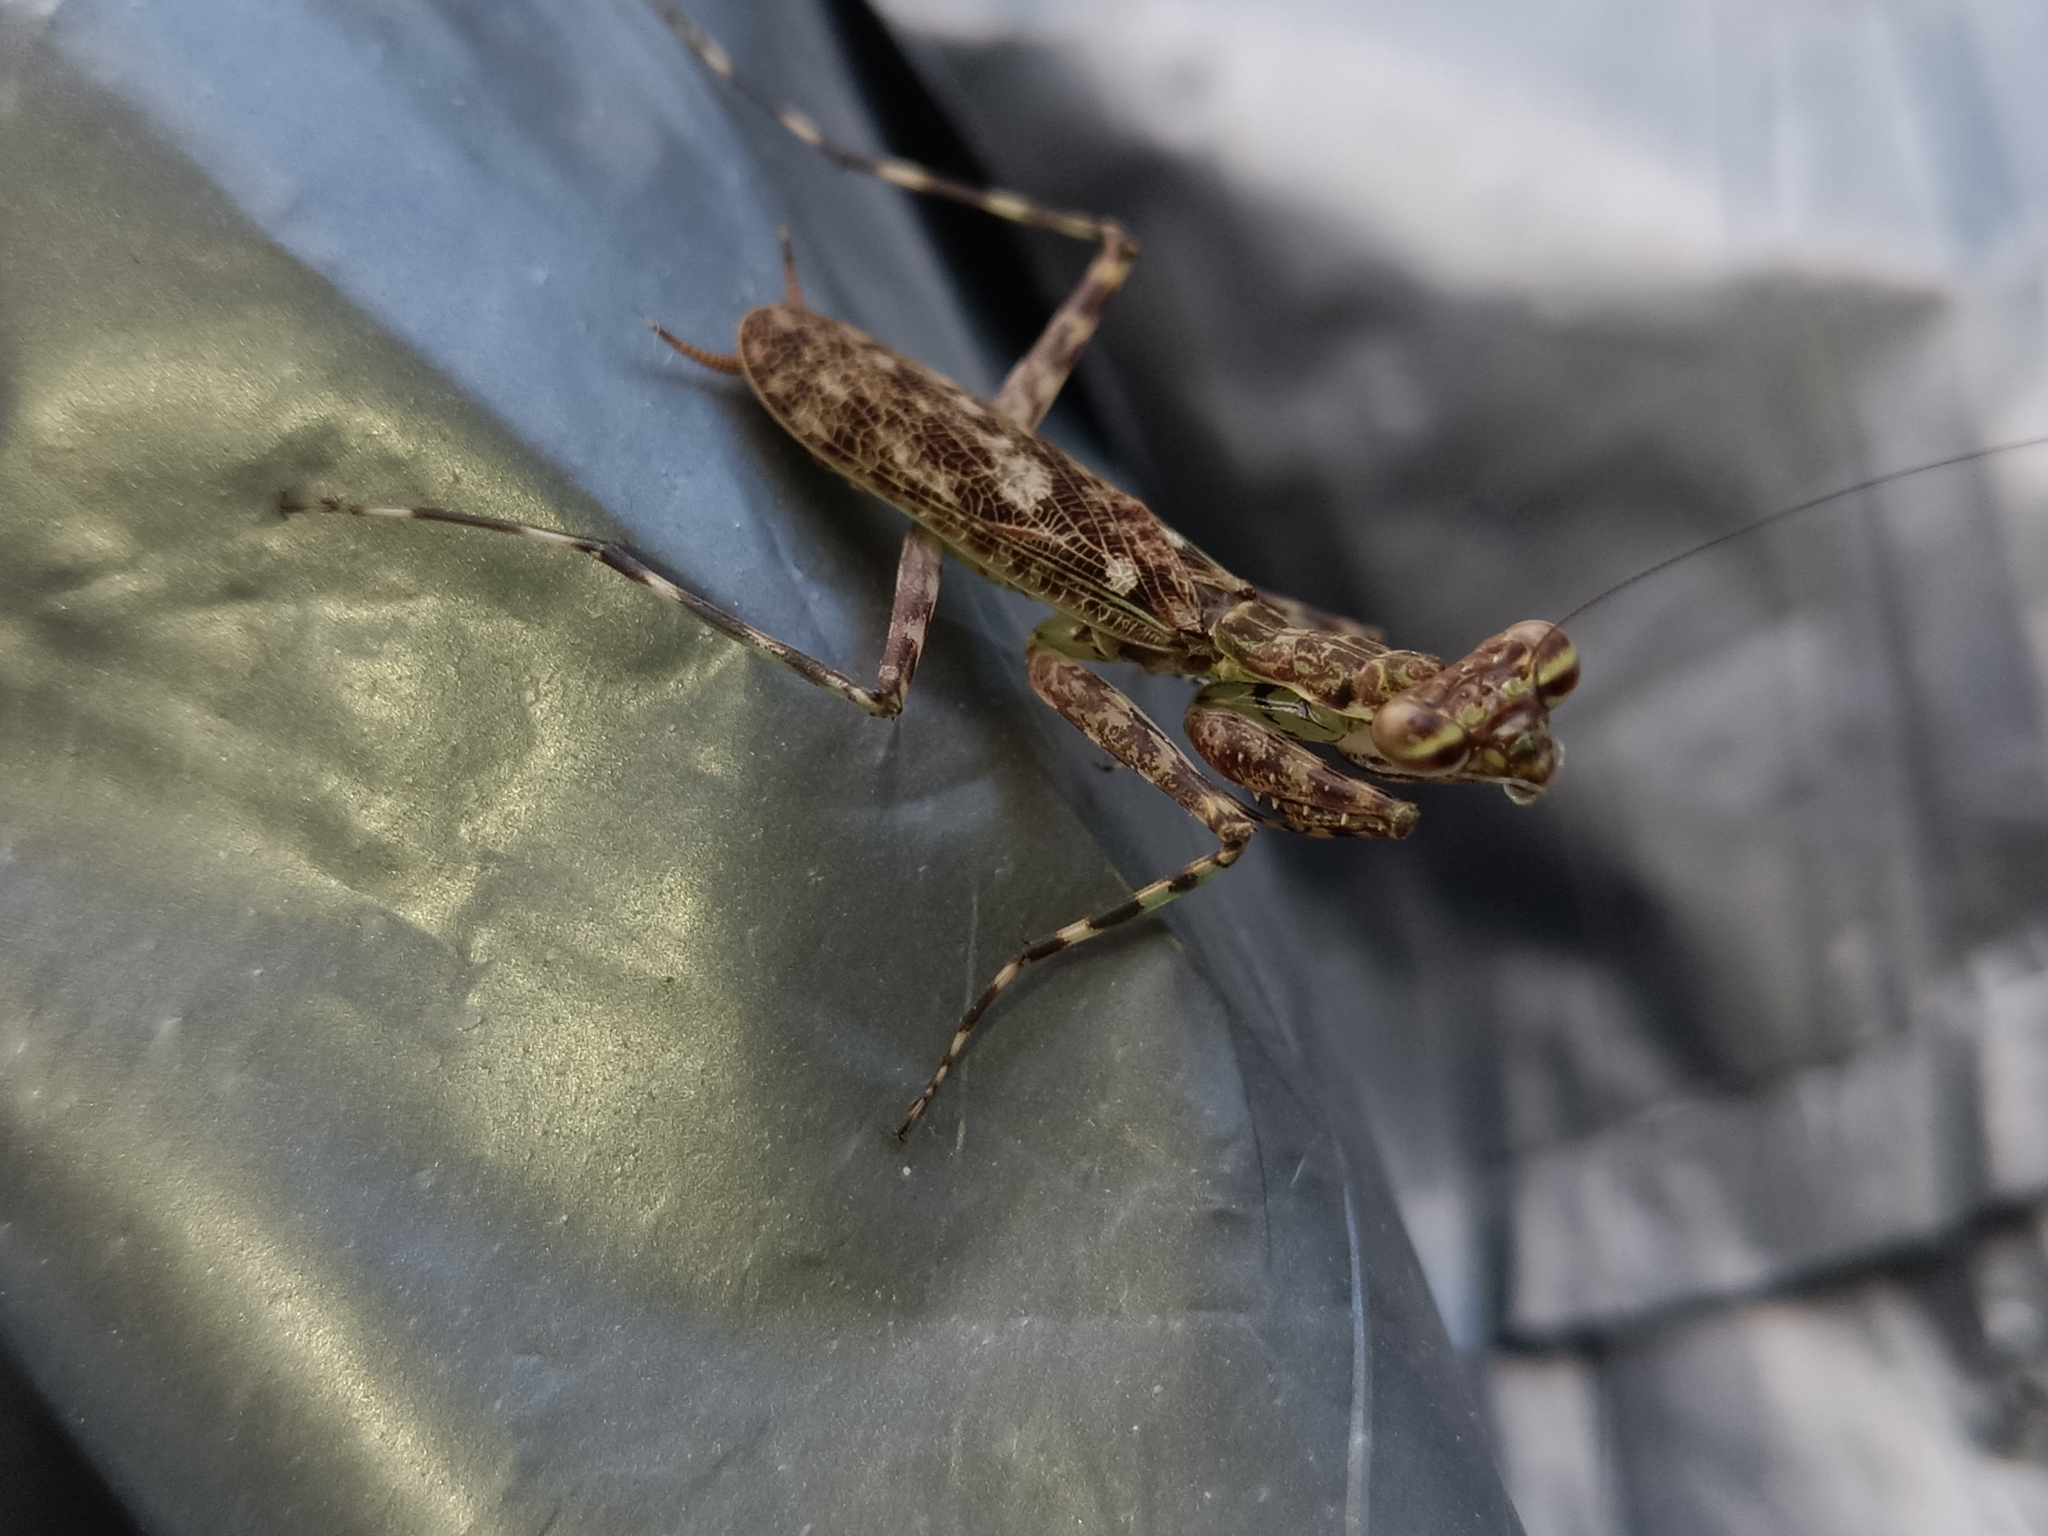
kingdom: Animalia
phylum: Arthropoda
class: Insecta
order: Mantodea
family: Liturgusidae
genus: Liturgusa
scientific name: Liturgusa cayennensis
